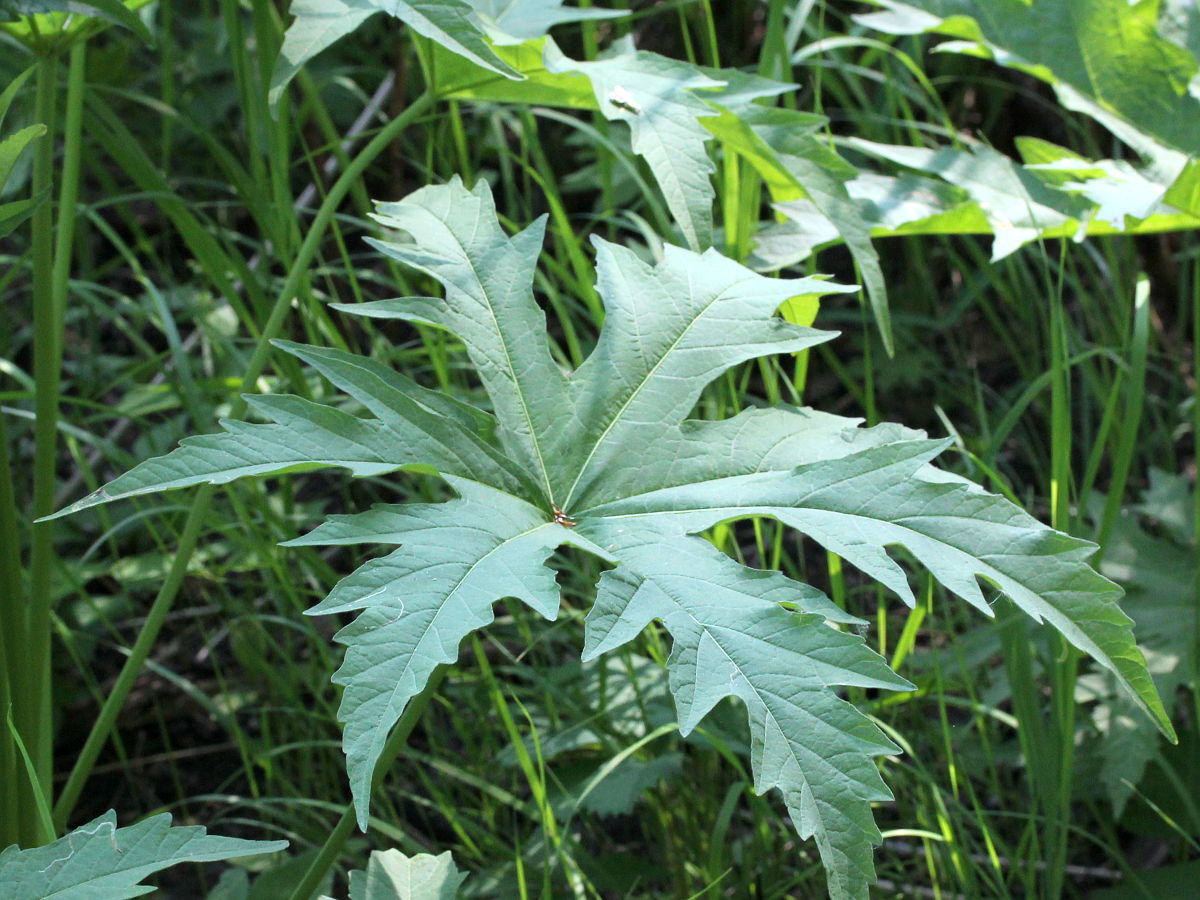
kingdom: Plantae
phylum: Tracheophyta
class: Magnoliopsida
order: Malvales
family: Malvaceae
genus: Napaea
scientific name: Napaea dioica
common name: Glade-mallow
